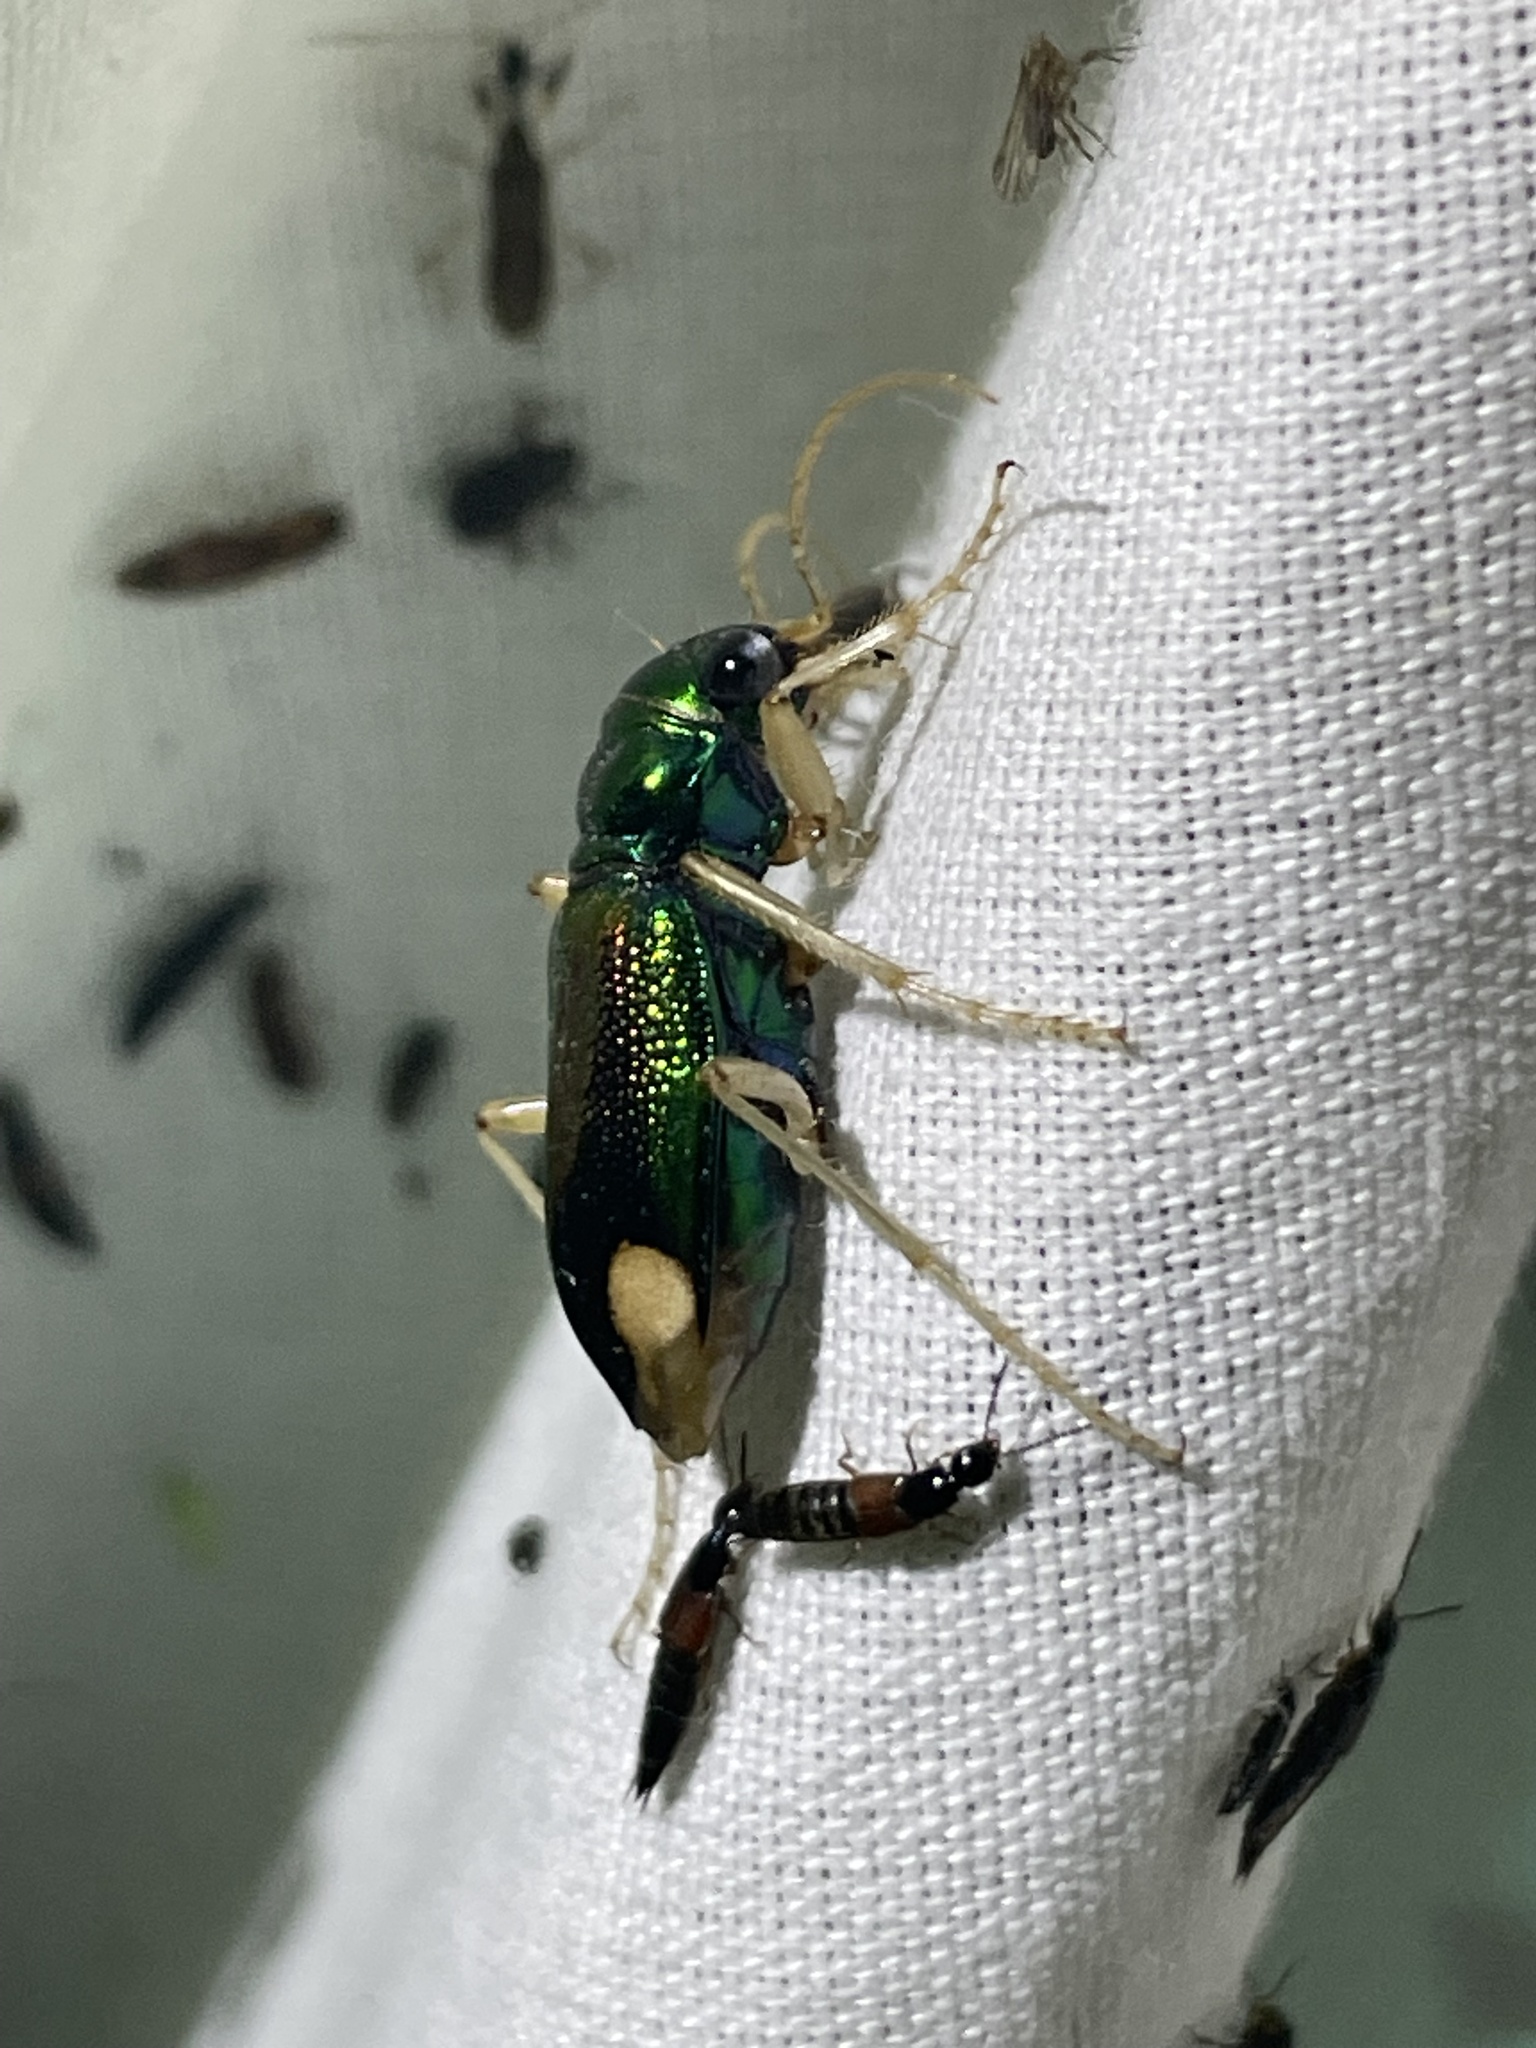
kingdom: Animalia
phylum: Arthropoda
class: Insecta
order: Coleoptera
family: Carabidae
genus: Tetracha
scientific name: Tetracha carolina
